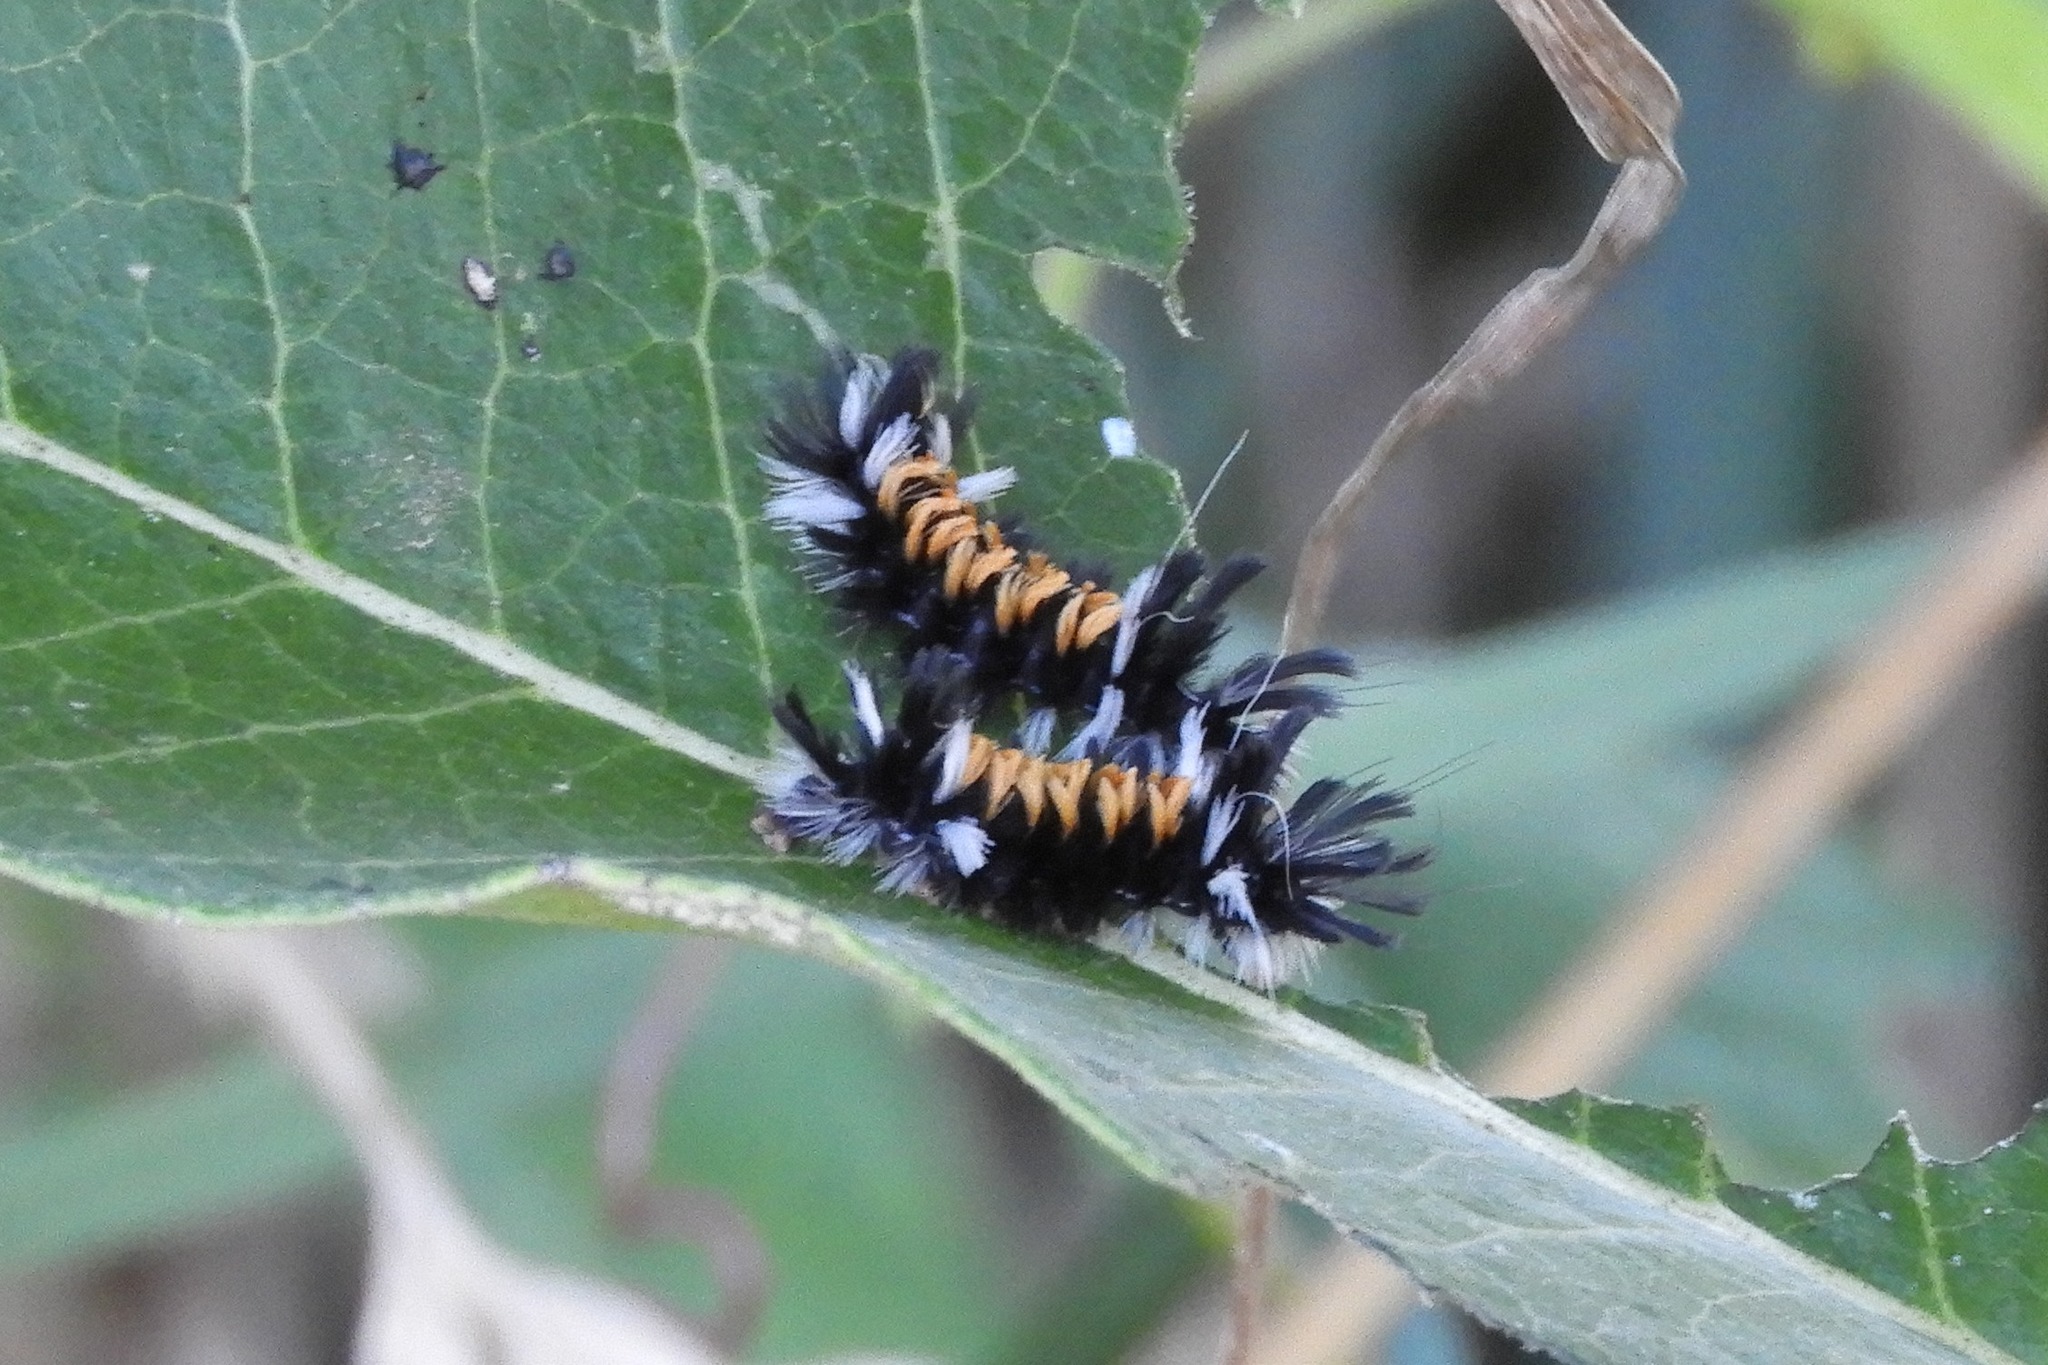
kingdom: Animalia
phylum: Arthropoda
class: Insecta
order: Lepidoptera
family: Erebidae
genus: Euchaetes
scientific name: Euchaetes egle
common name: Milkweed tussock moth
